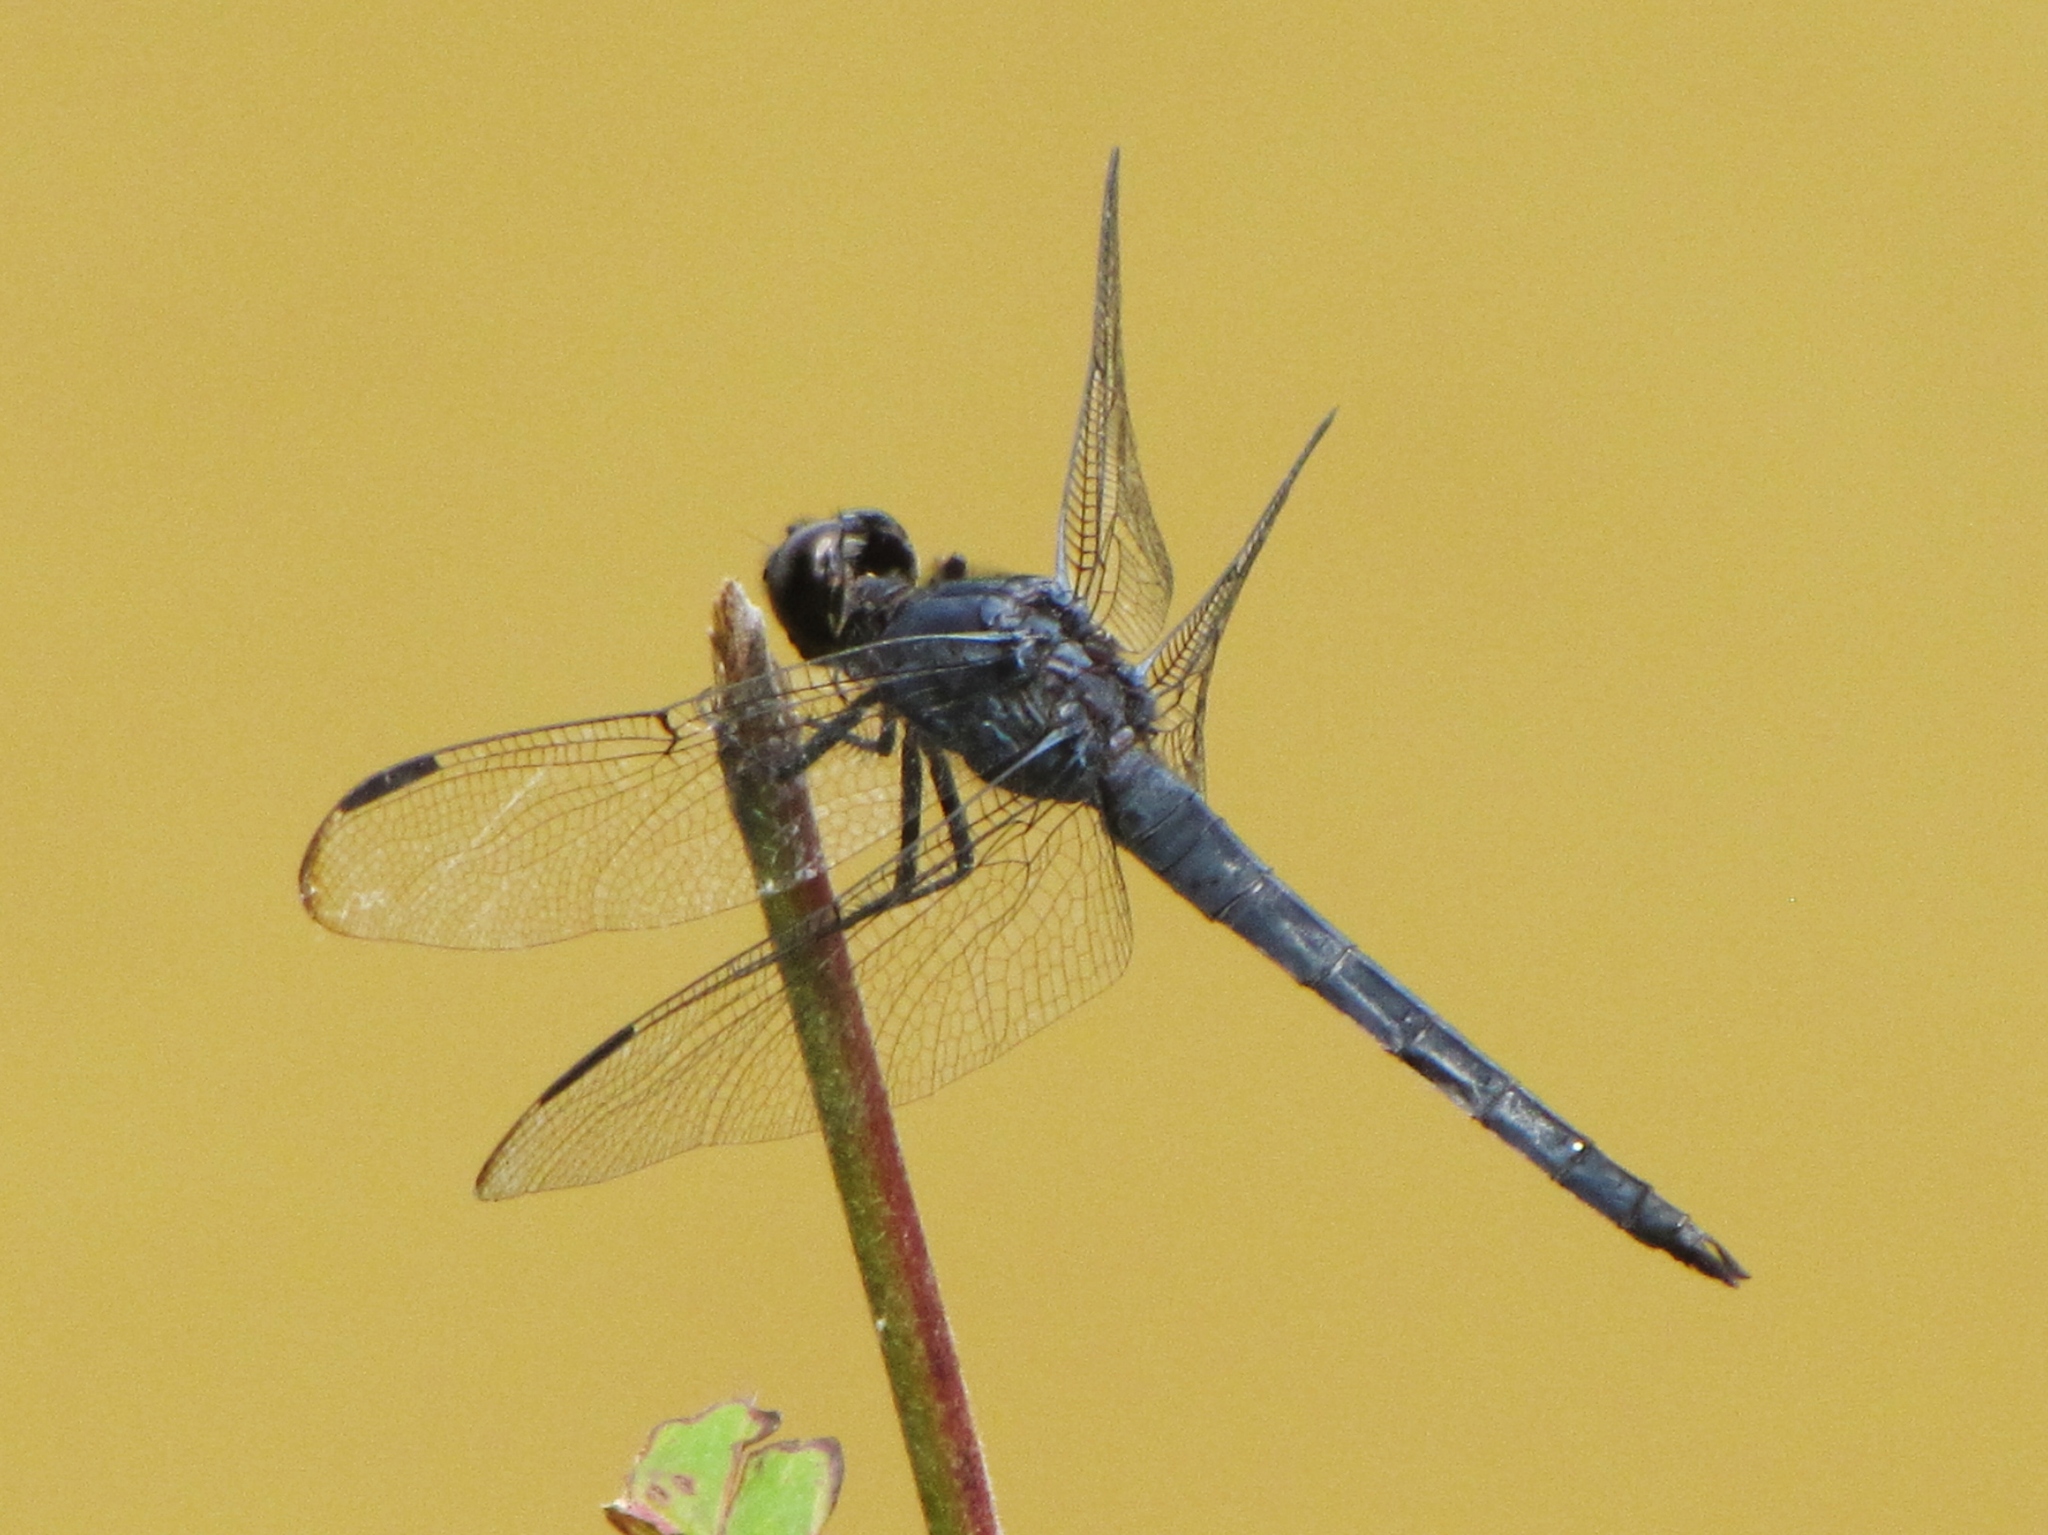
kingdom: Animalia
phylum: Arthropoda
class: Insecta
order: Odonata
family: Libellulidae
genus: Libellula
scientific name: Libellula incesta
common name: Slaty skimmer
